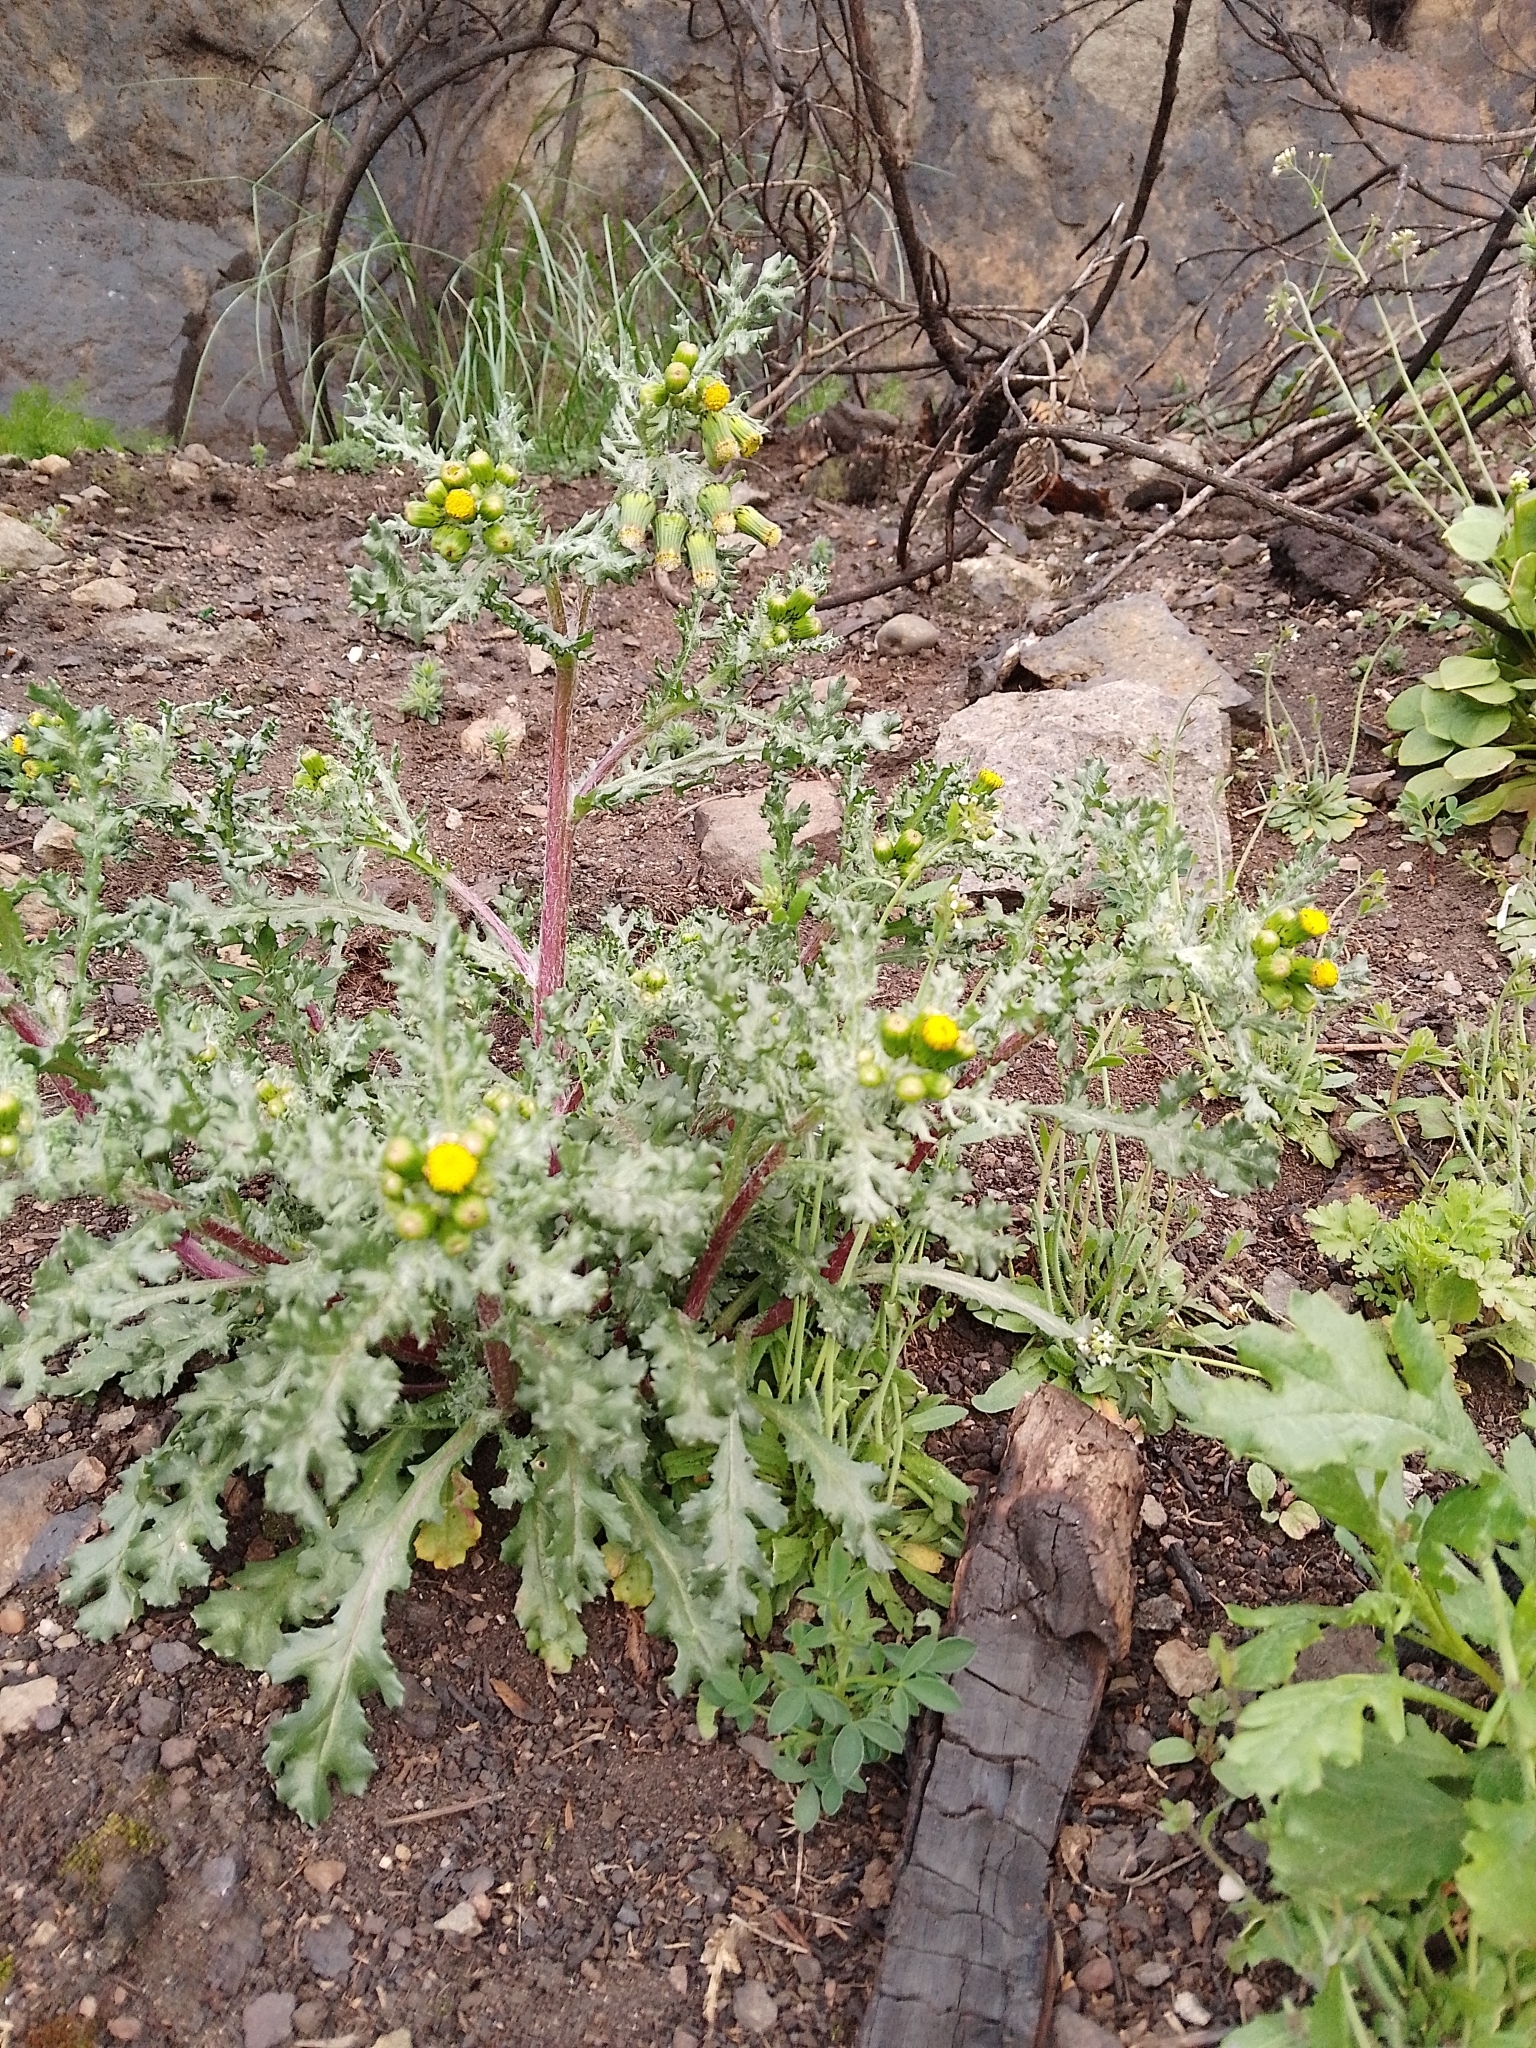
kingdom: Plantae
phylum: Tracheophyta
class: Magnoliopsida
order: Asterales
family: Asteraceae
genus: Senecio
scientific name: Senecio vulgaris
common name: Old-man-in-the-spring
